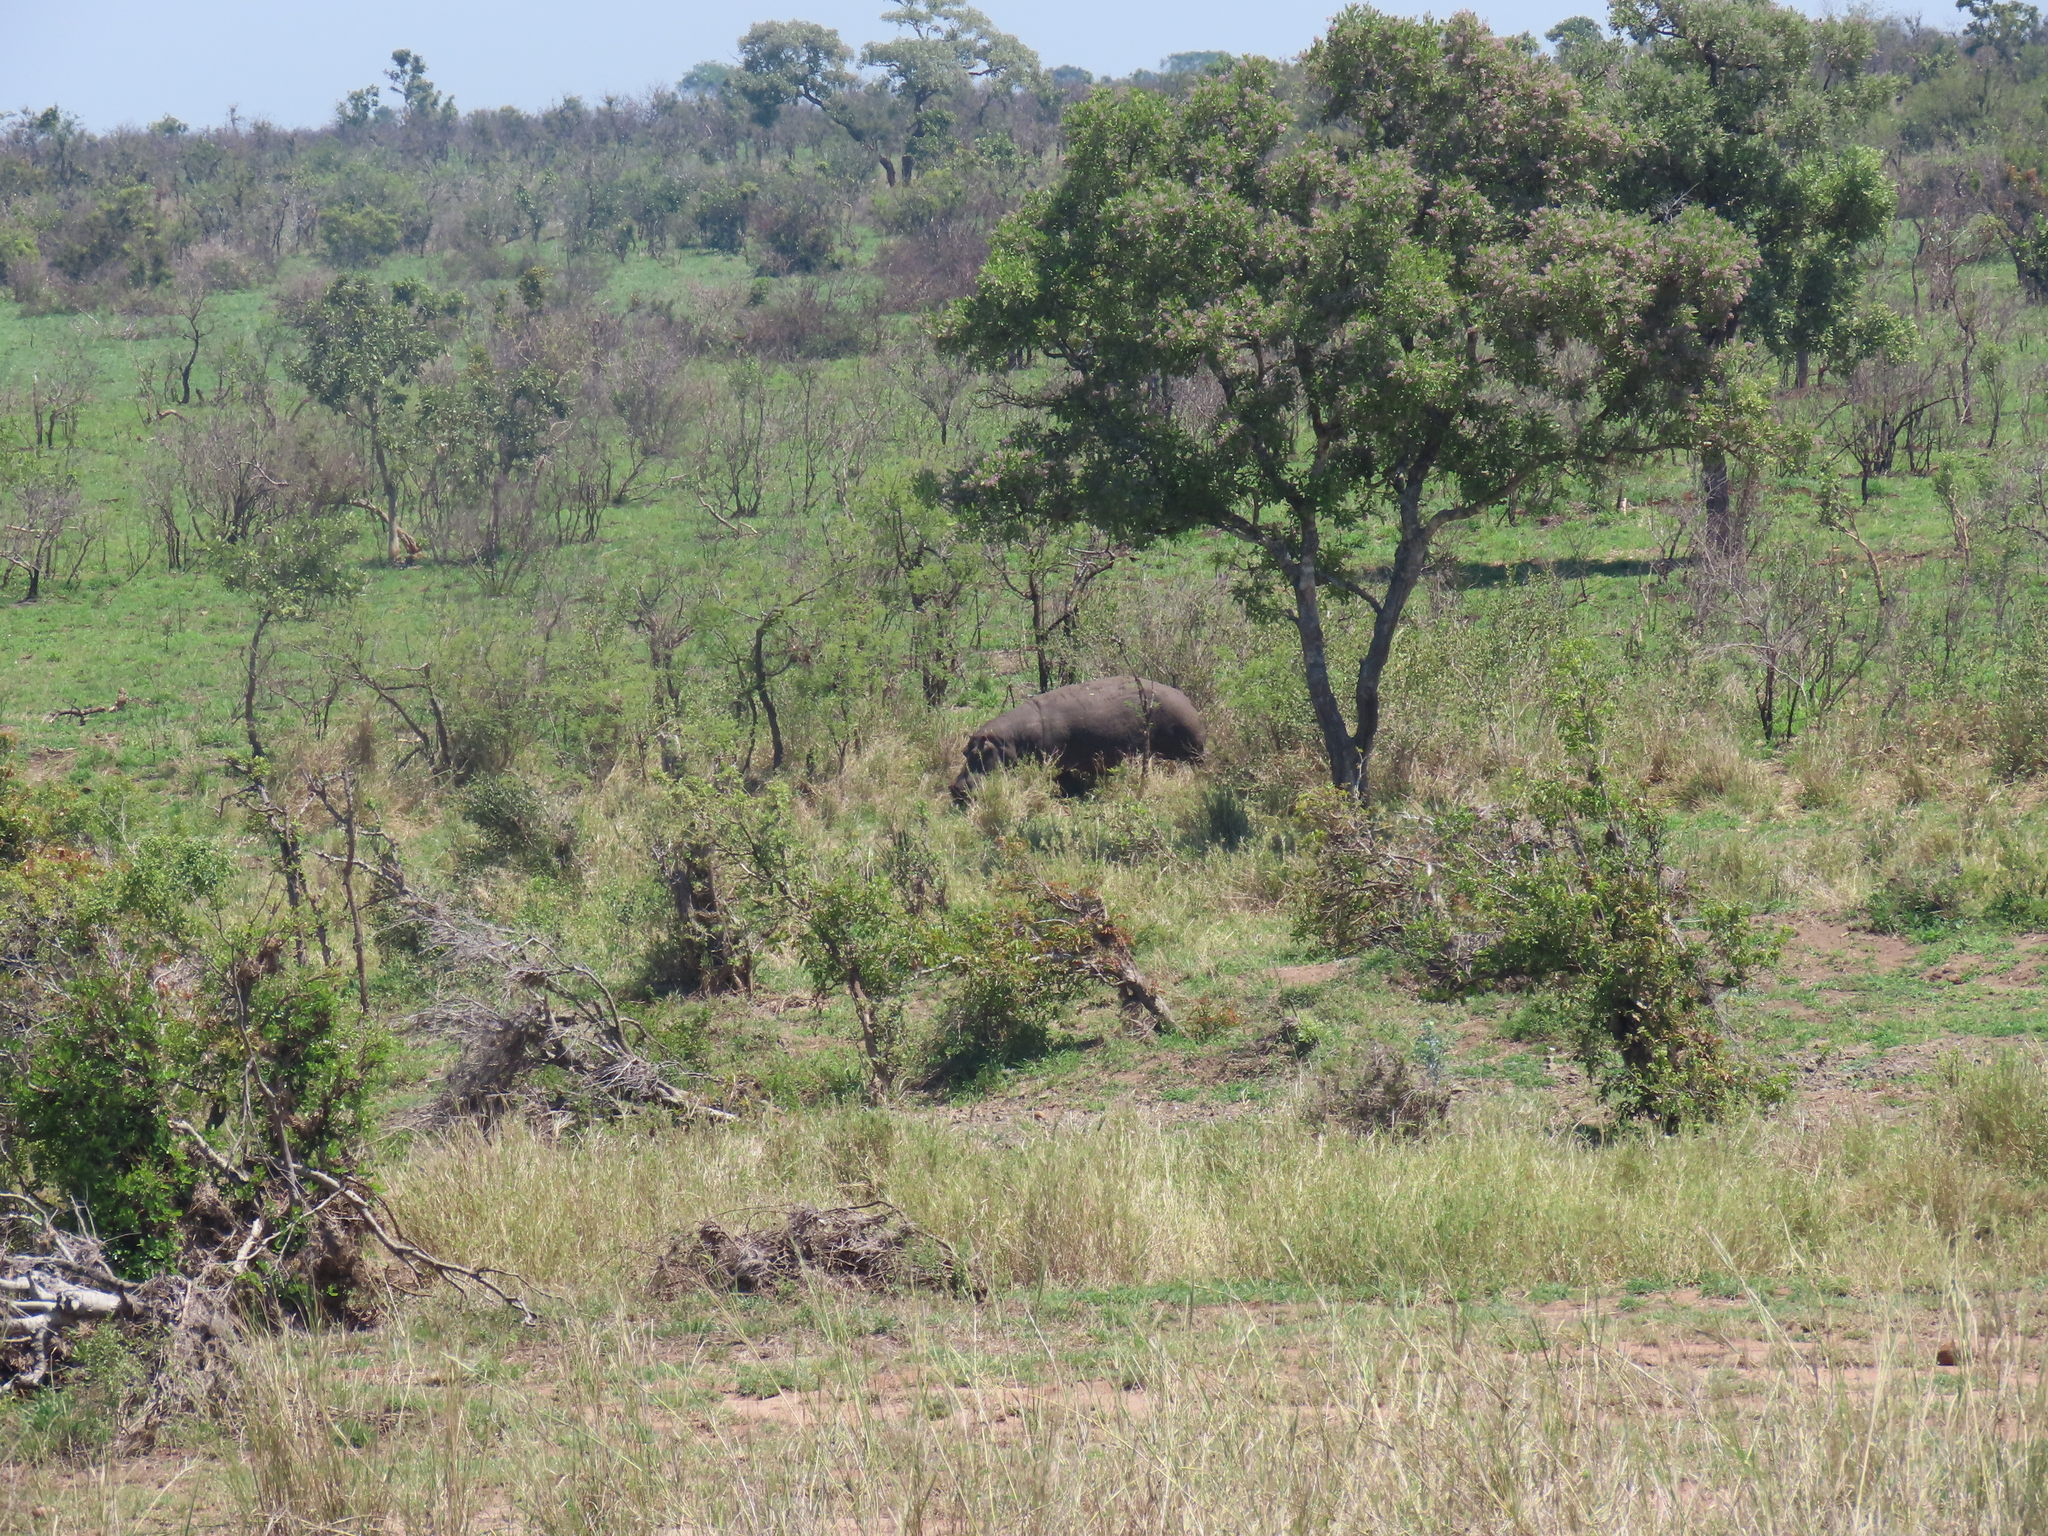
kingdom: Animalia
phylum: Chordata
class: Mammalia
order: Artiodactyla
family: Hippopotamidae
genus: Hippopotamus
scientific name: Hippopotamus amphibius
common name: Common hippopotamus
